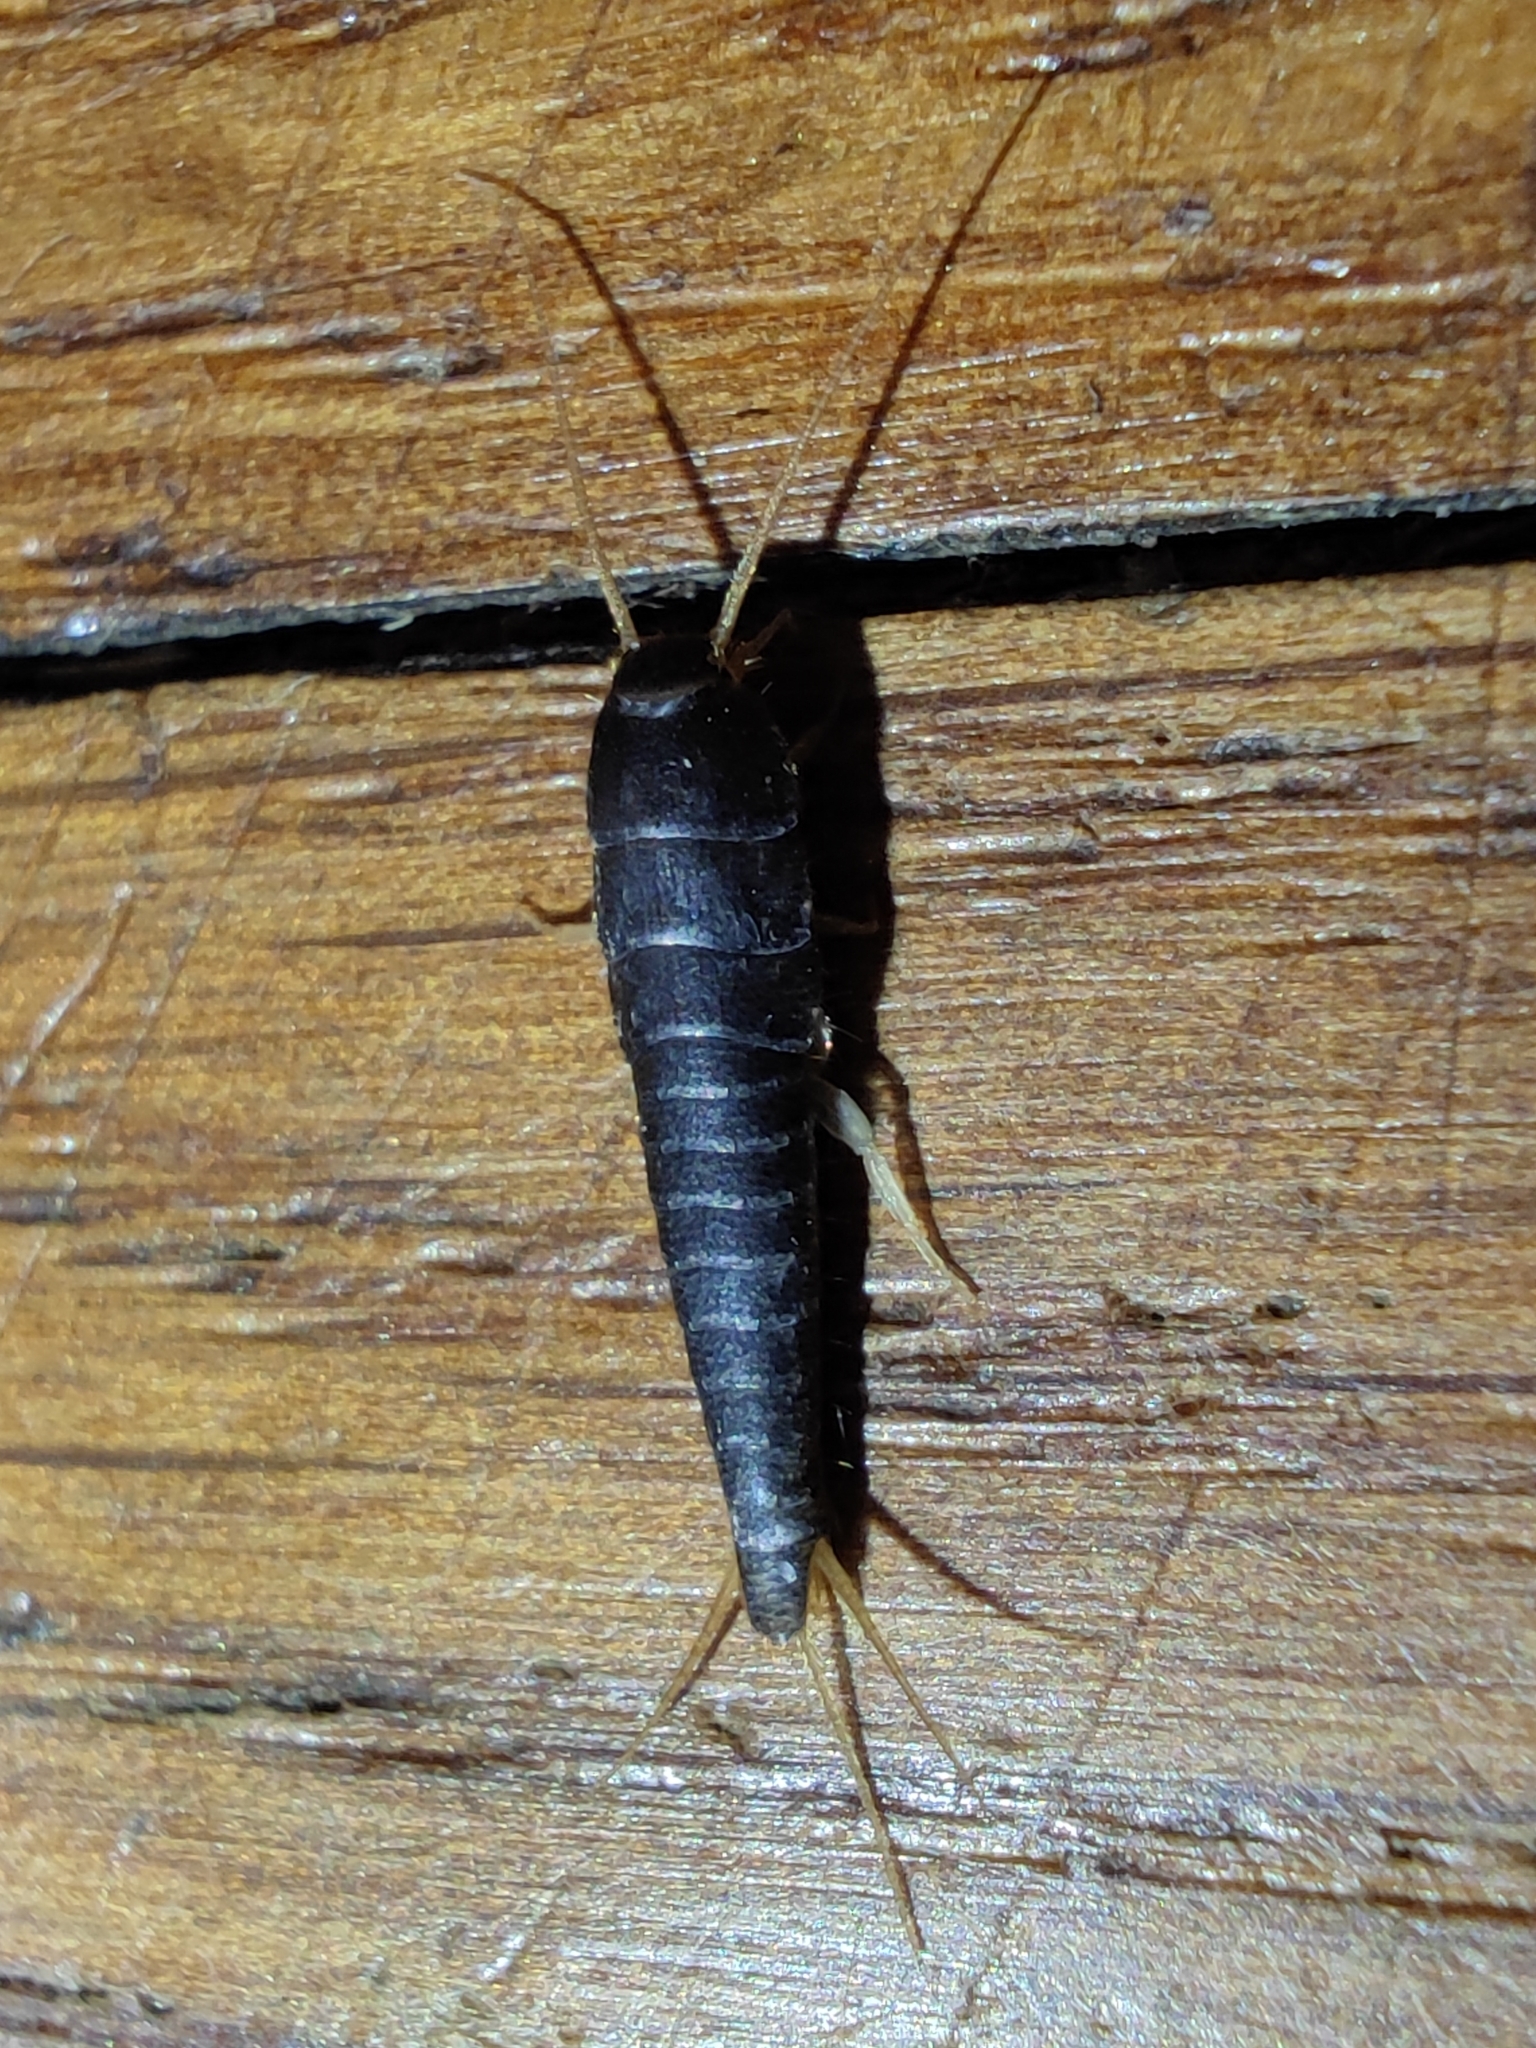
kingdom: Animalia
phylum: Arthropoda
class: Insecta
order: Zygentoma
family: Lepismatidae
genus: Lepisma
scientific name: Lepisma saccharinum
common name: Silverfish
